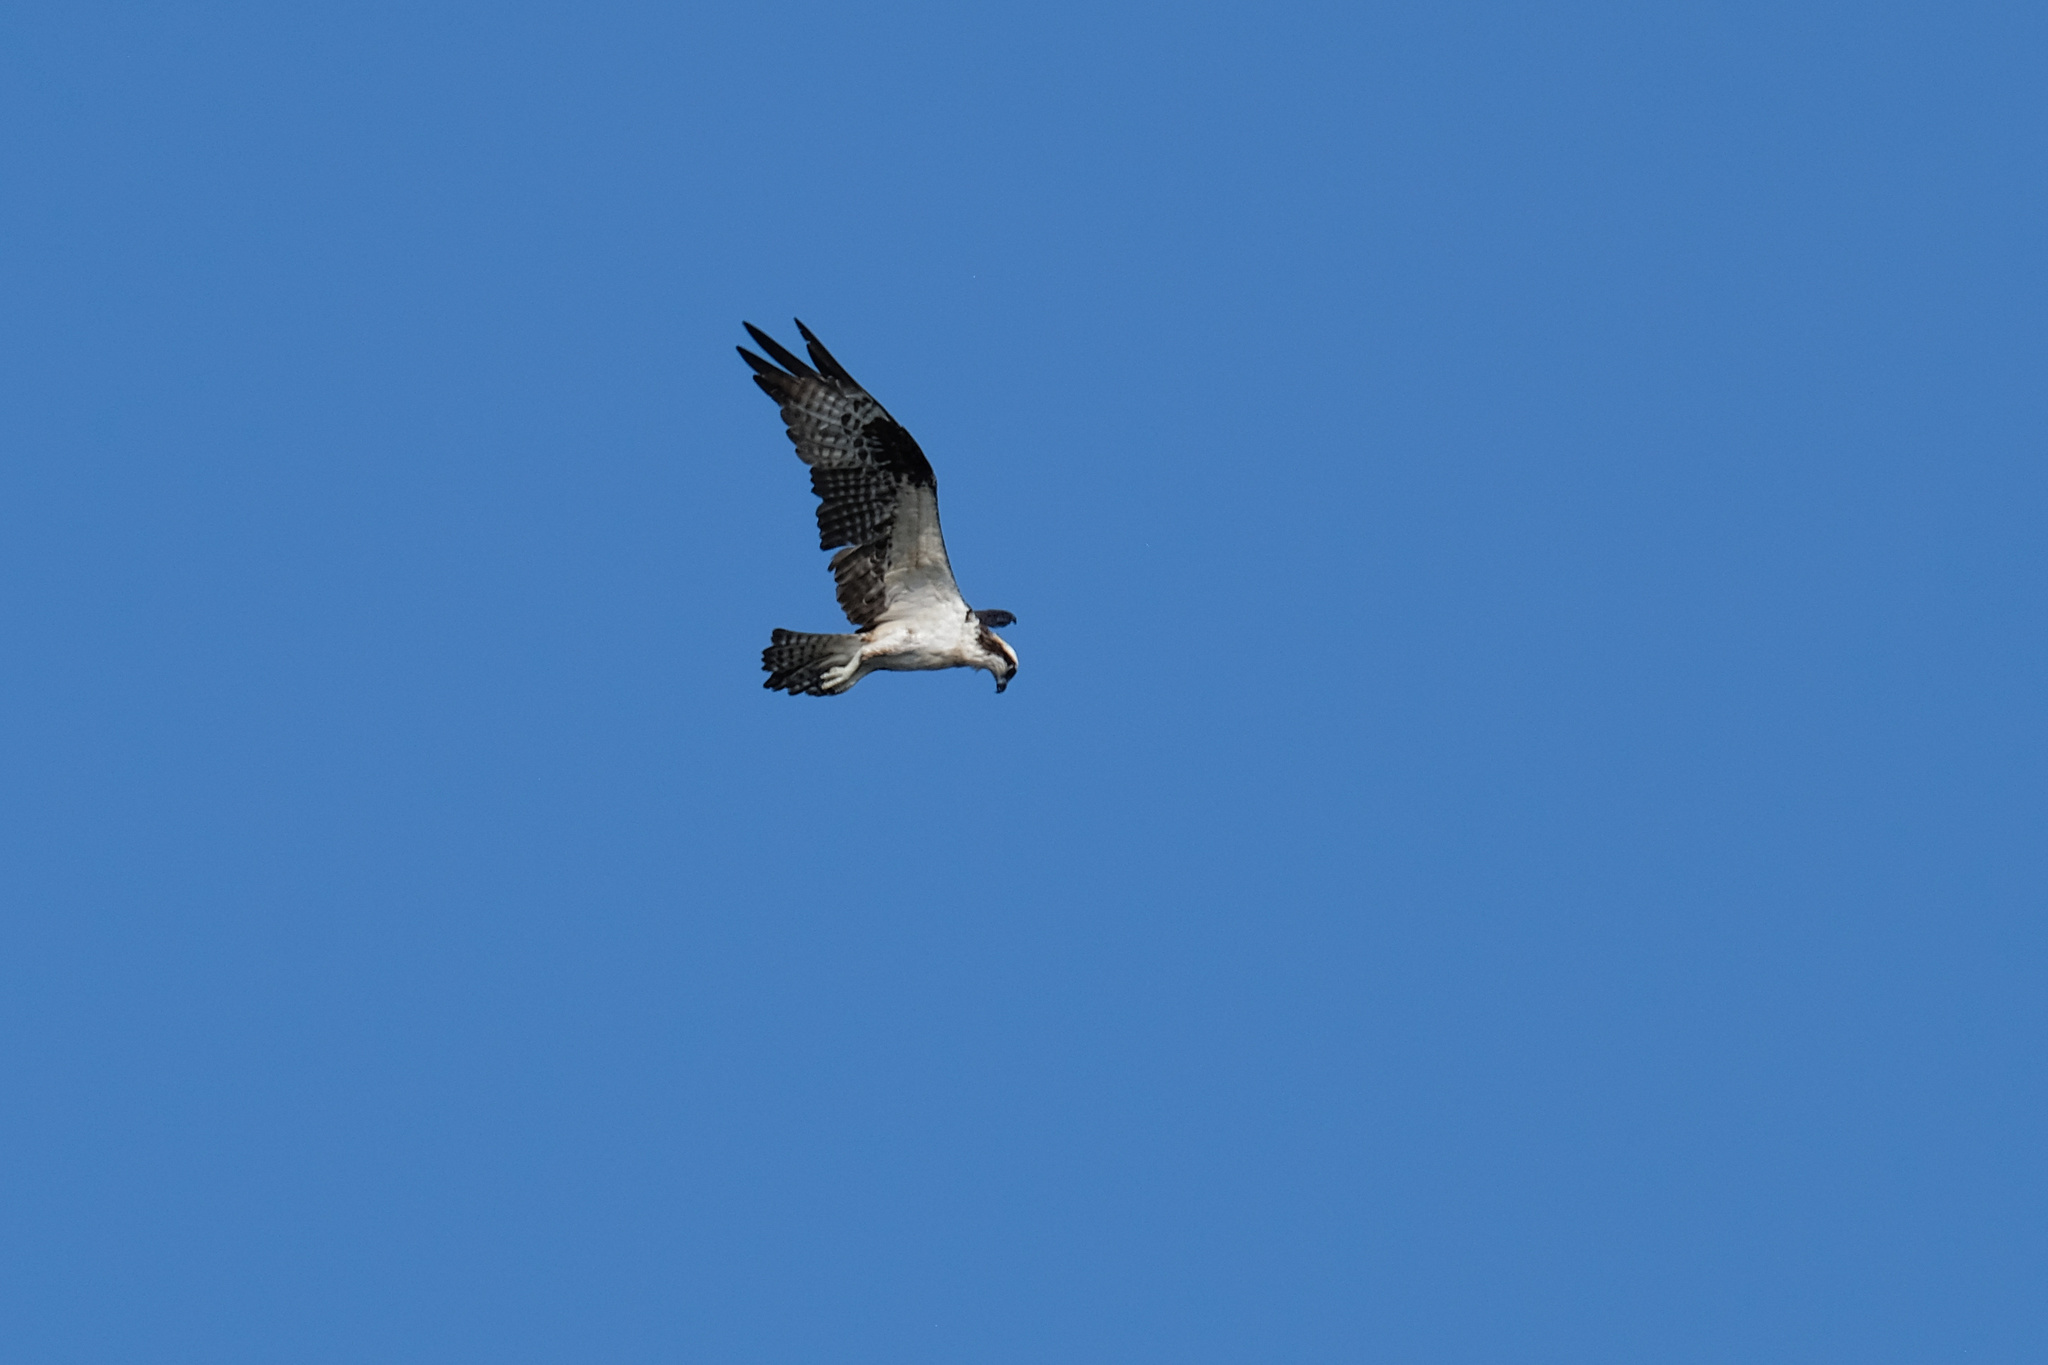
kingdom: Animalia
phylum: Chordata
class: Aves
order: Accipitriformes
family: Pandionidae
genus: Pandion
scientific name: Pandion haliaetus
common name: Osprey
